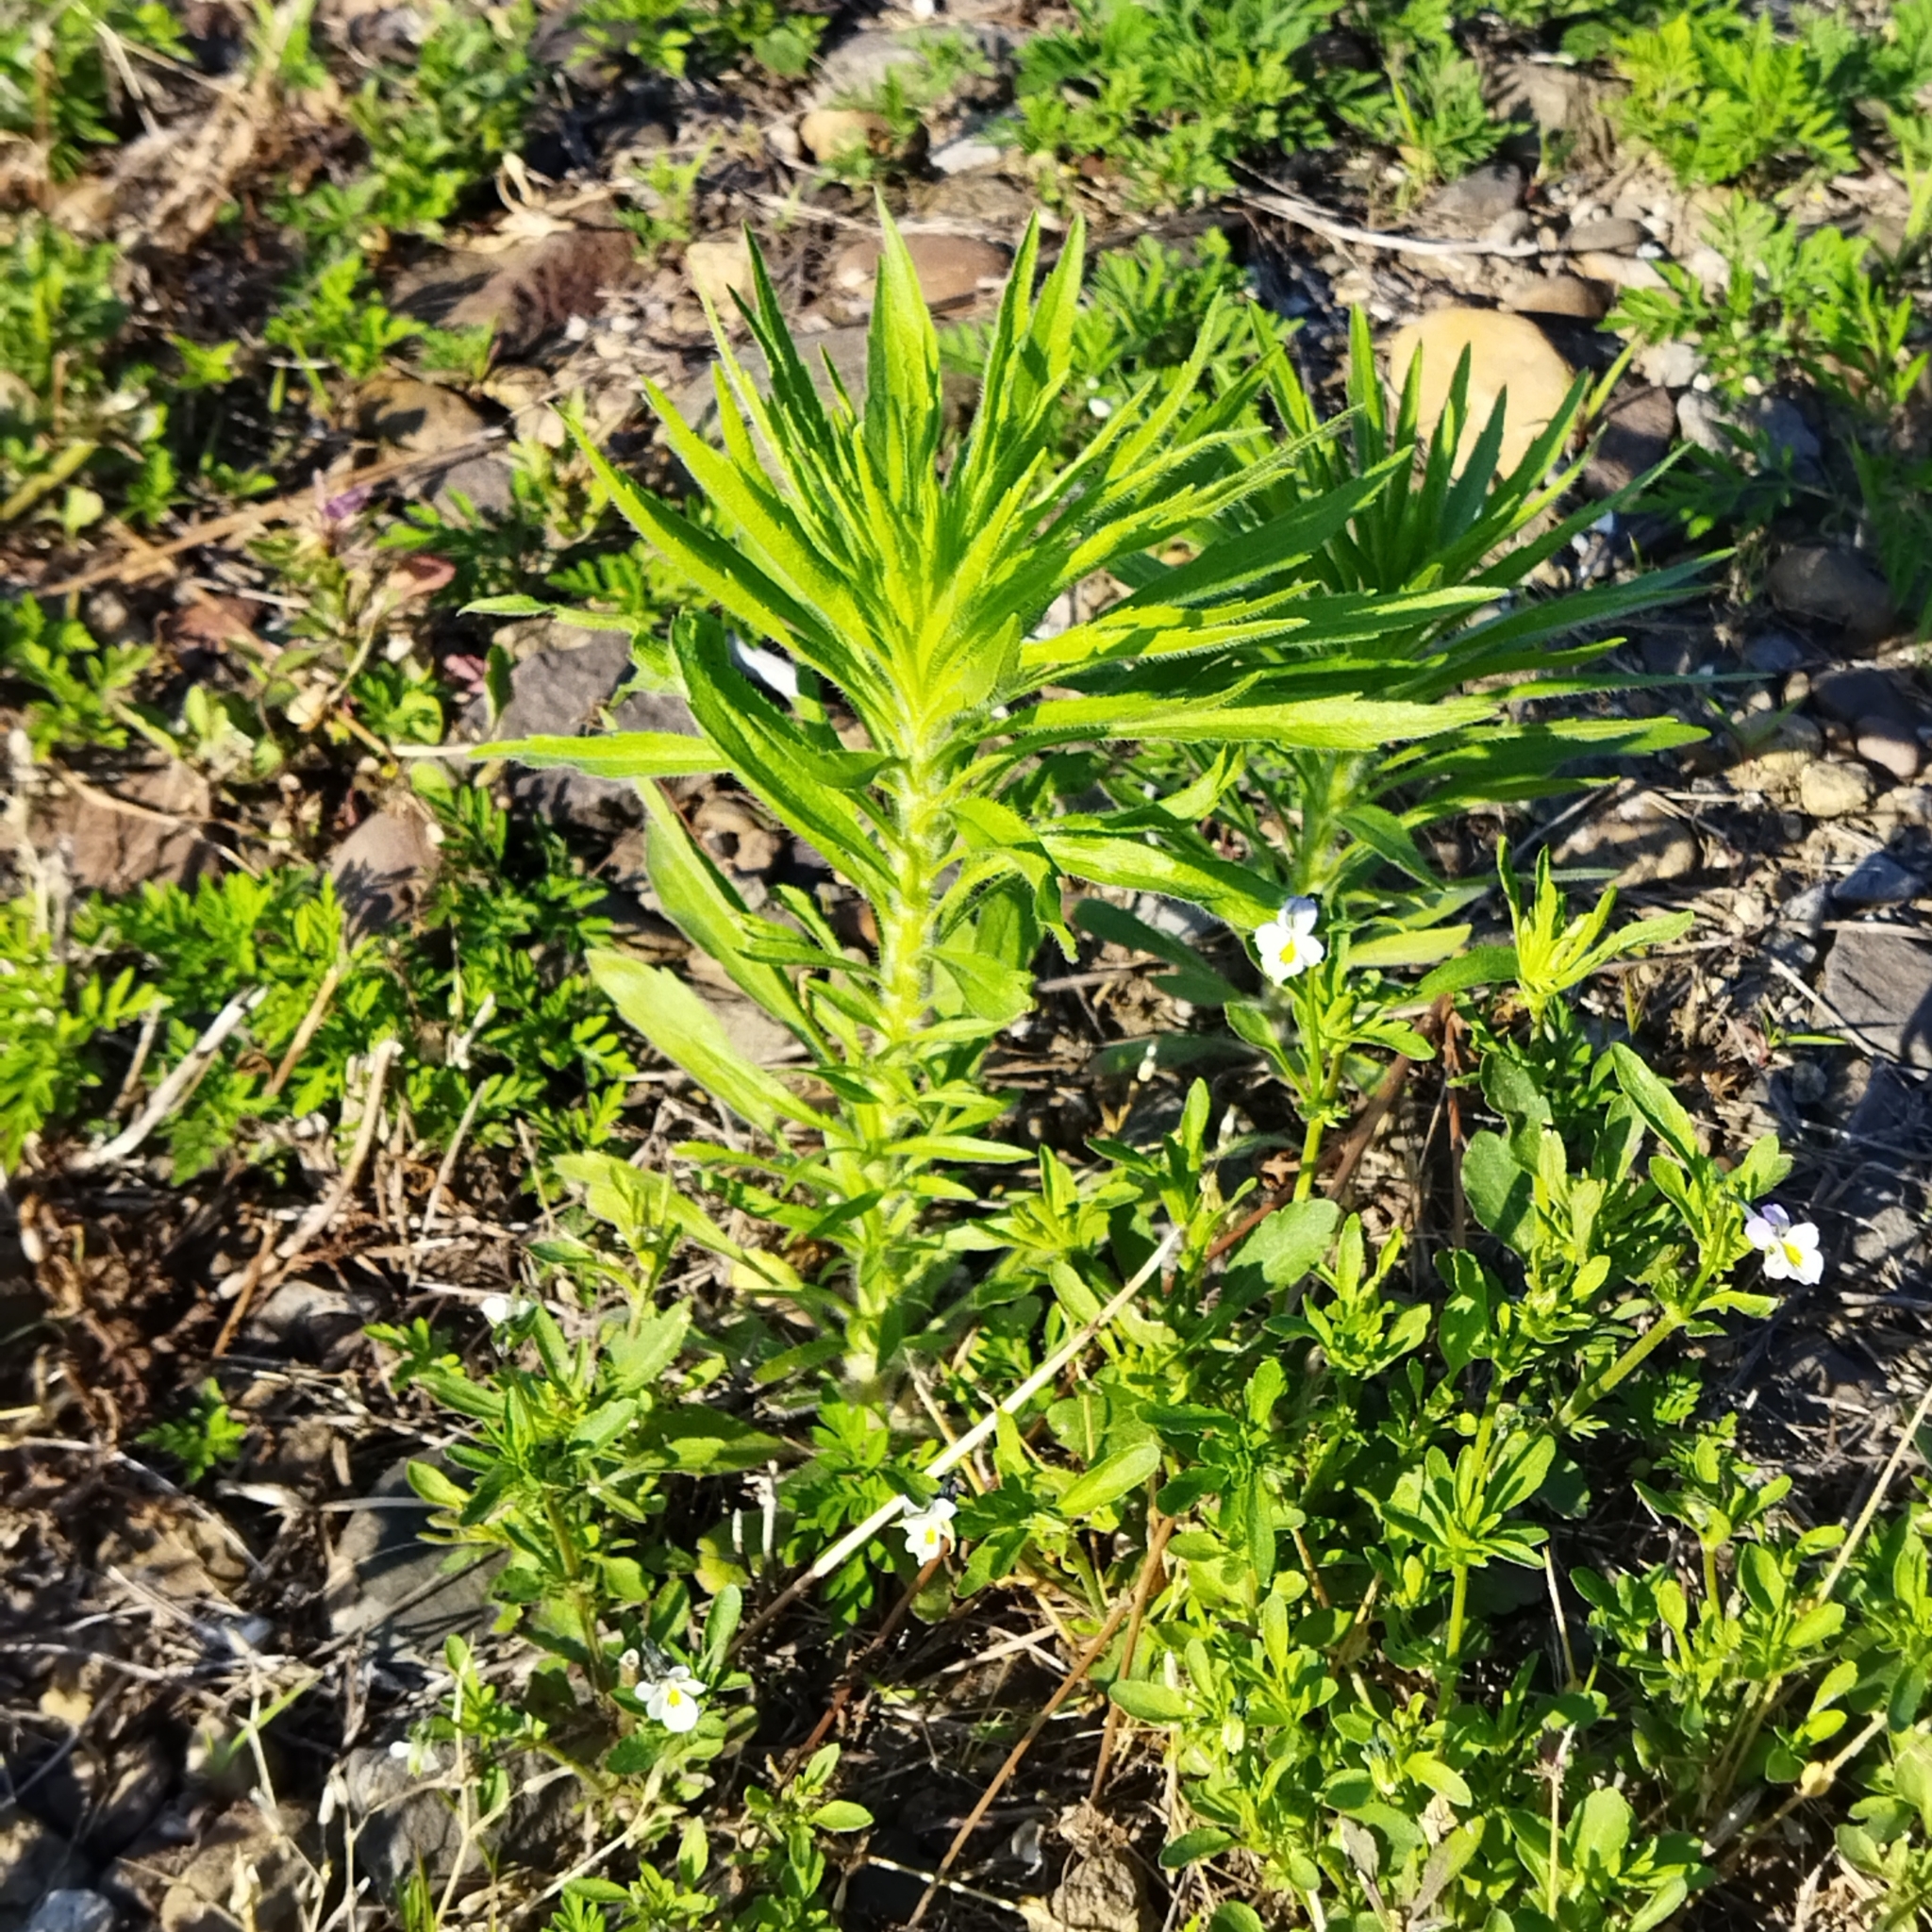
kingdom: Plantae
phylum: Tracheophyta
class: Magnoliopsida
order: Asterales
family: Asteraceae
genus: Erigeron
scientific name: Erigeron canadensis
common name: Canadian fleabane
